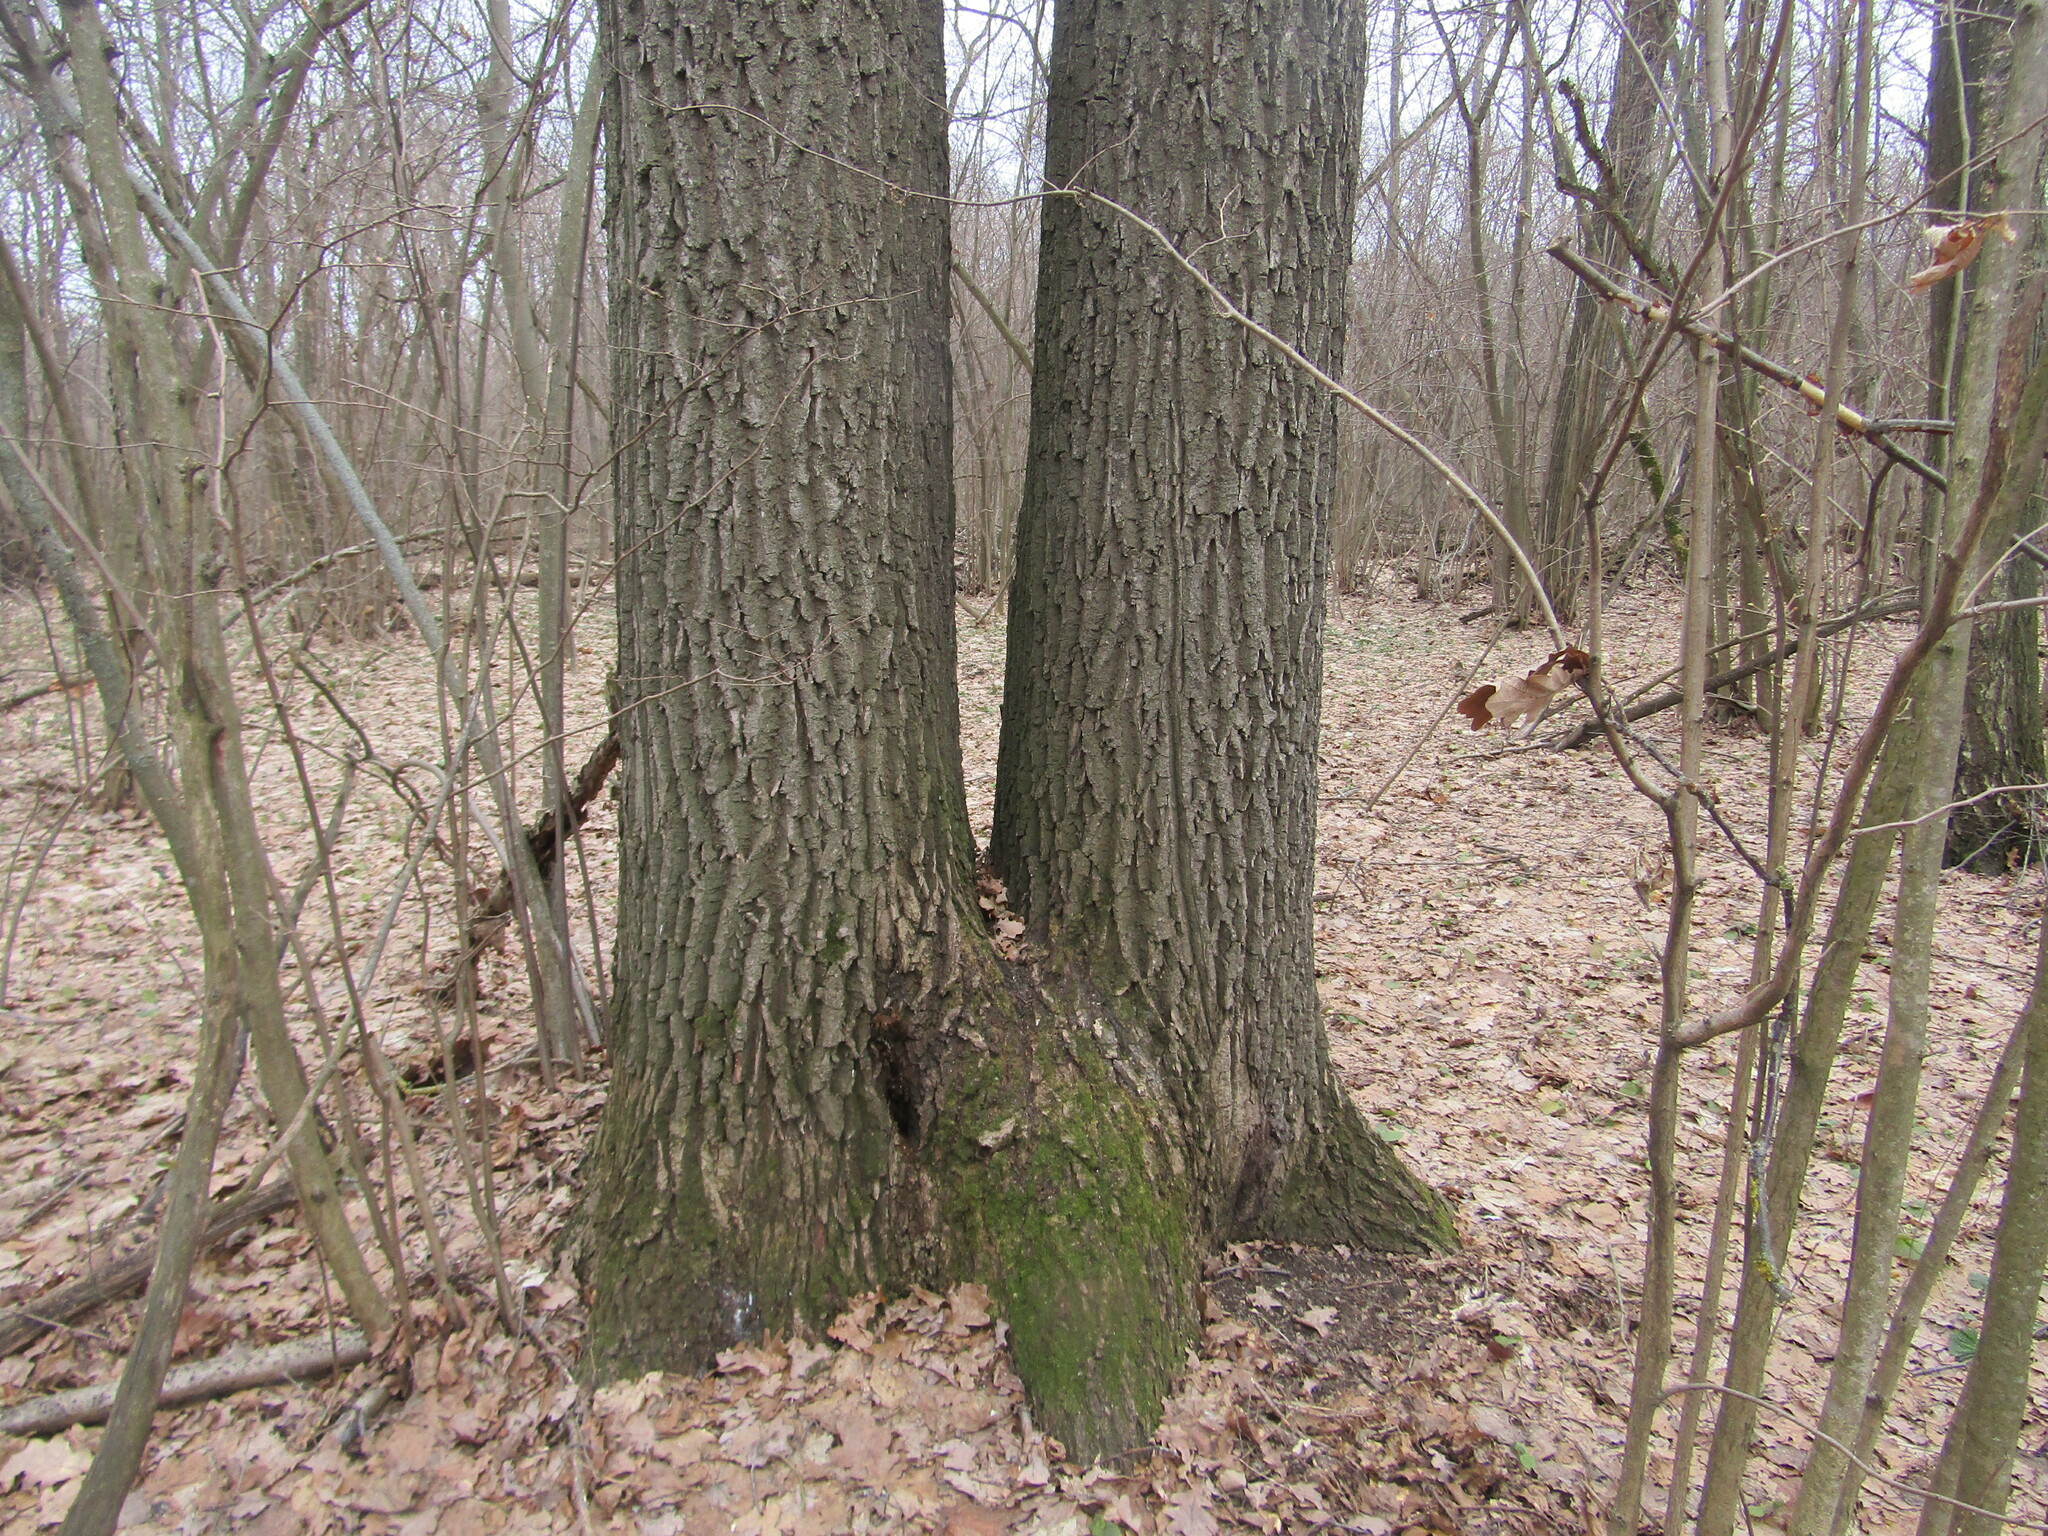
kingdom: Plantae
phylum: Tracheophyta
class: Magnoliopsida
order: Fagales
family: Fagaceae
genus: Quercus
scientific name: Quercus robur
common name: Pedunculate oak
